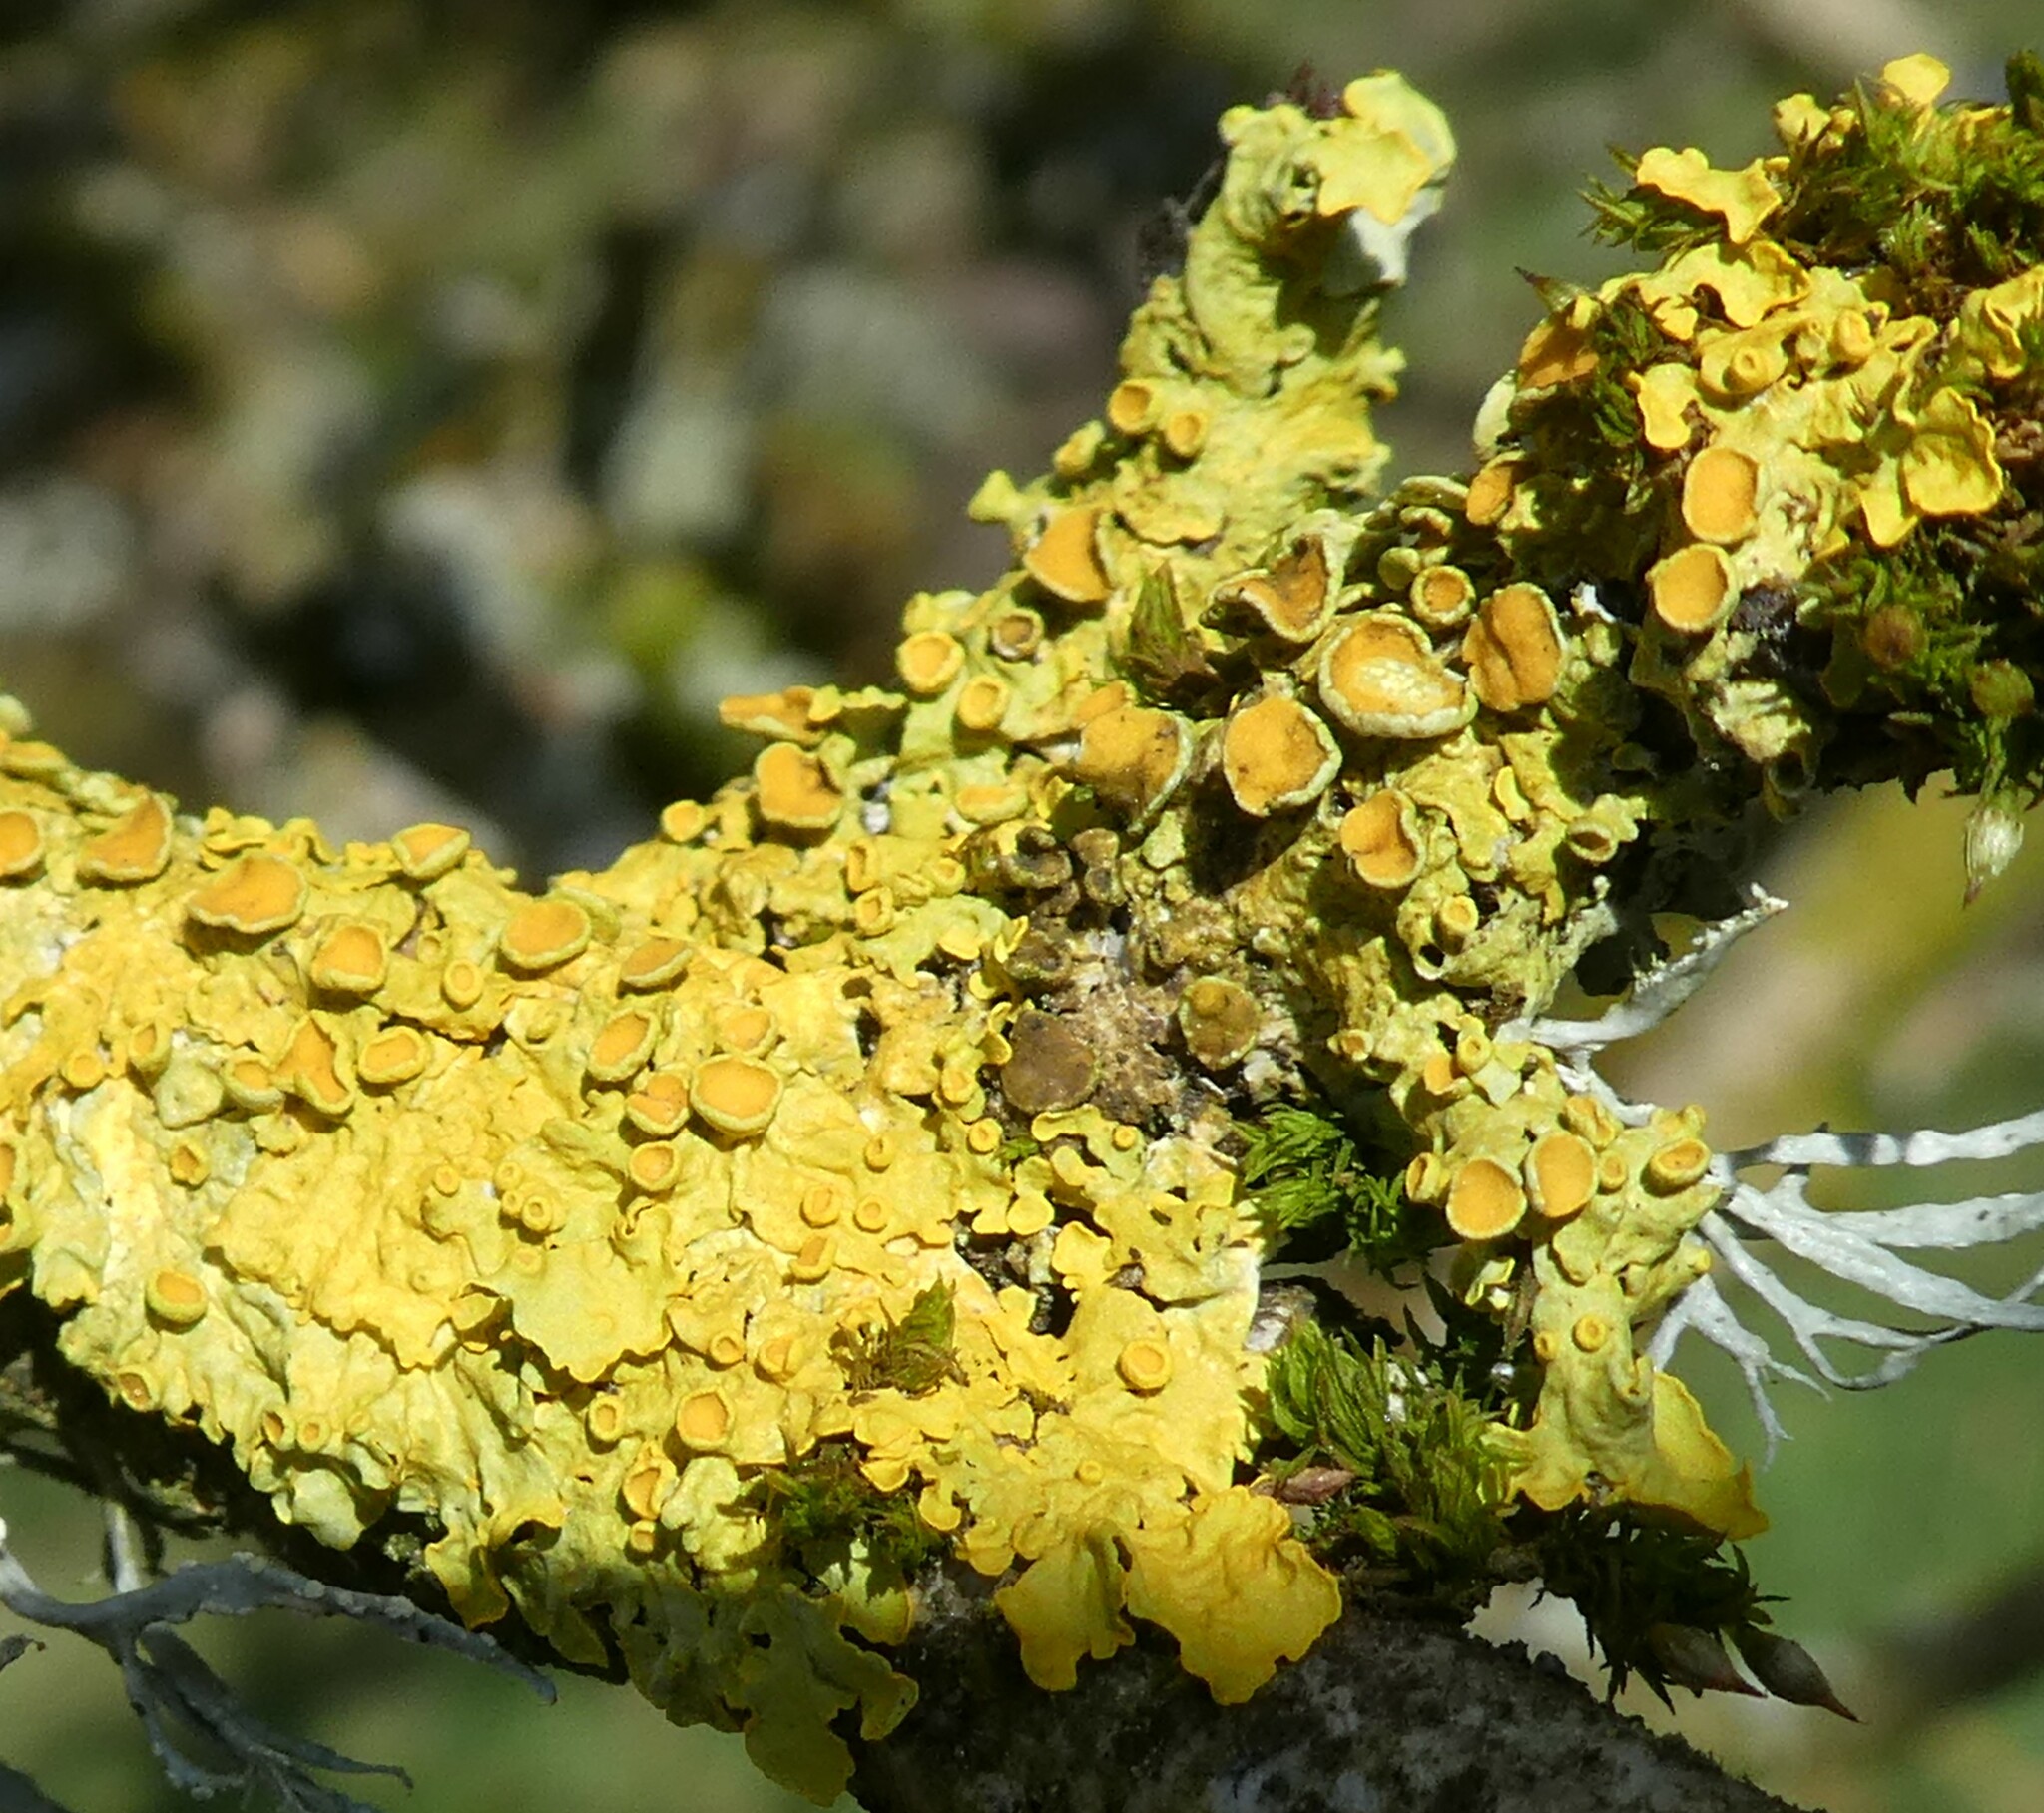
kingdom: Fungi
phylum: Ascomycota
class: Lecanoromycetes
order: Teloschistales
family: Teloschistaceae
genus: Xanthoria
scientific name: Xanthoria parietina
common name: Common orange lichen
